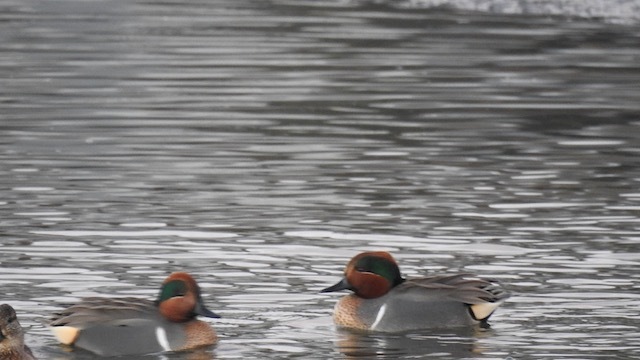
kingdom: Animalia
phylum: Chordata
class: Aves
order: Anseriformes
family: Anatidae
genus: Anas
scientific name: Anas carolinensis
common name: Green-winged teal
